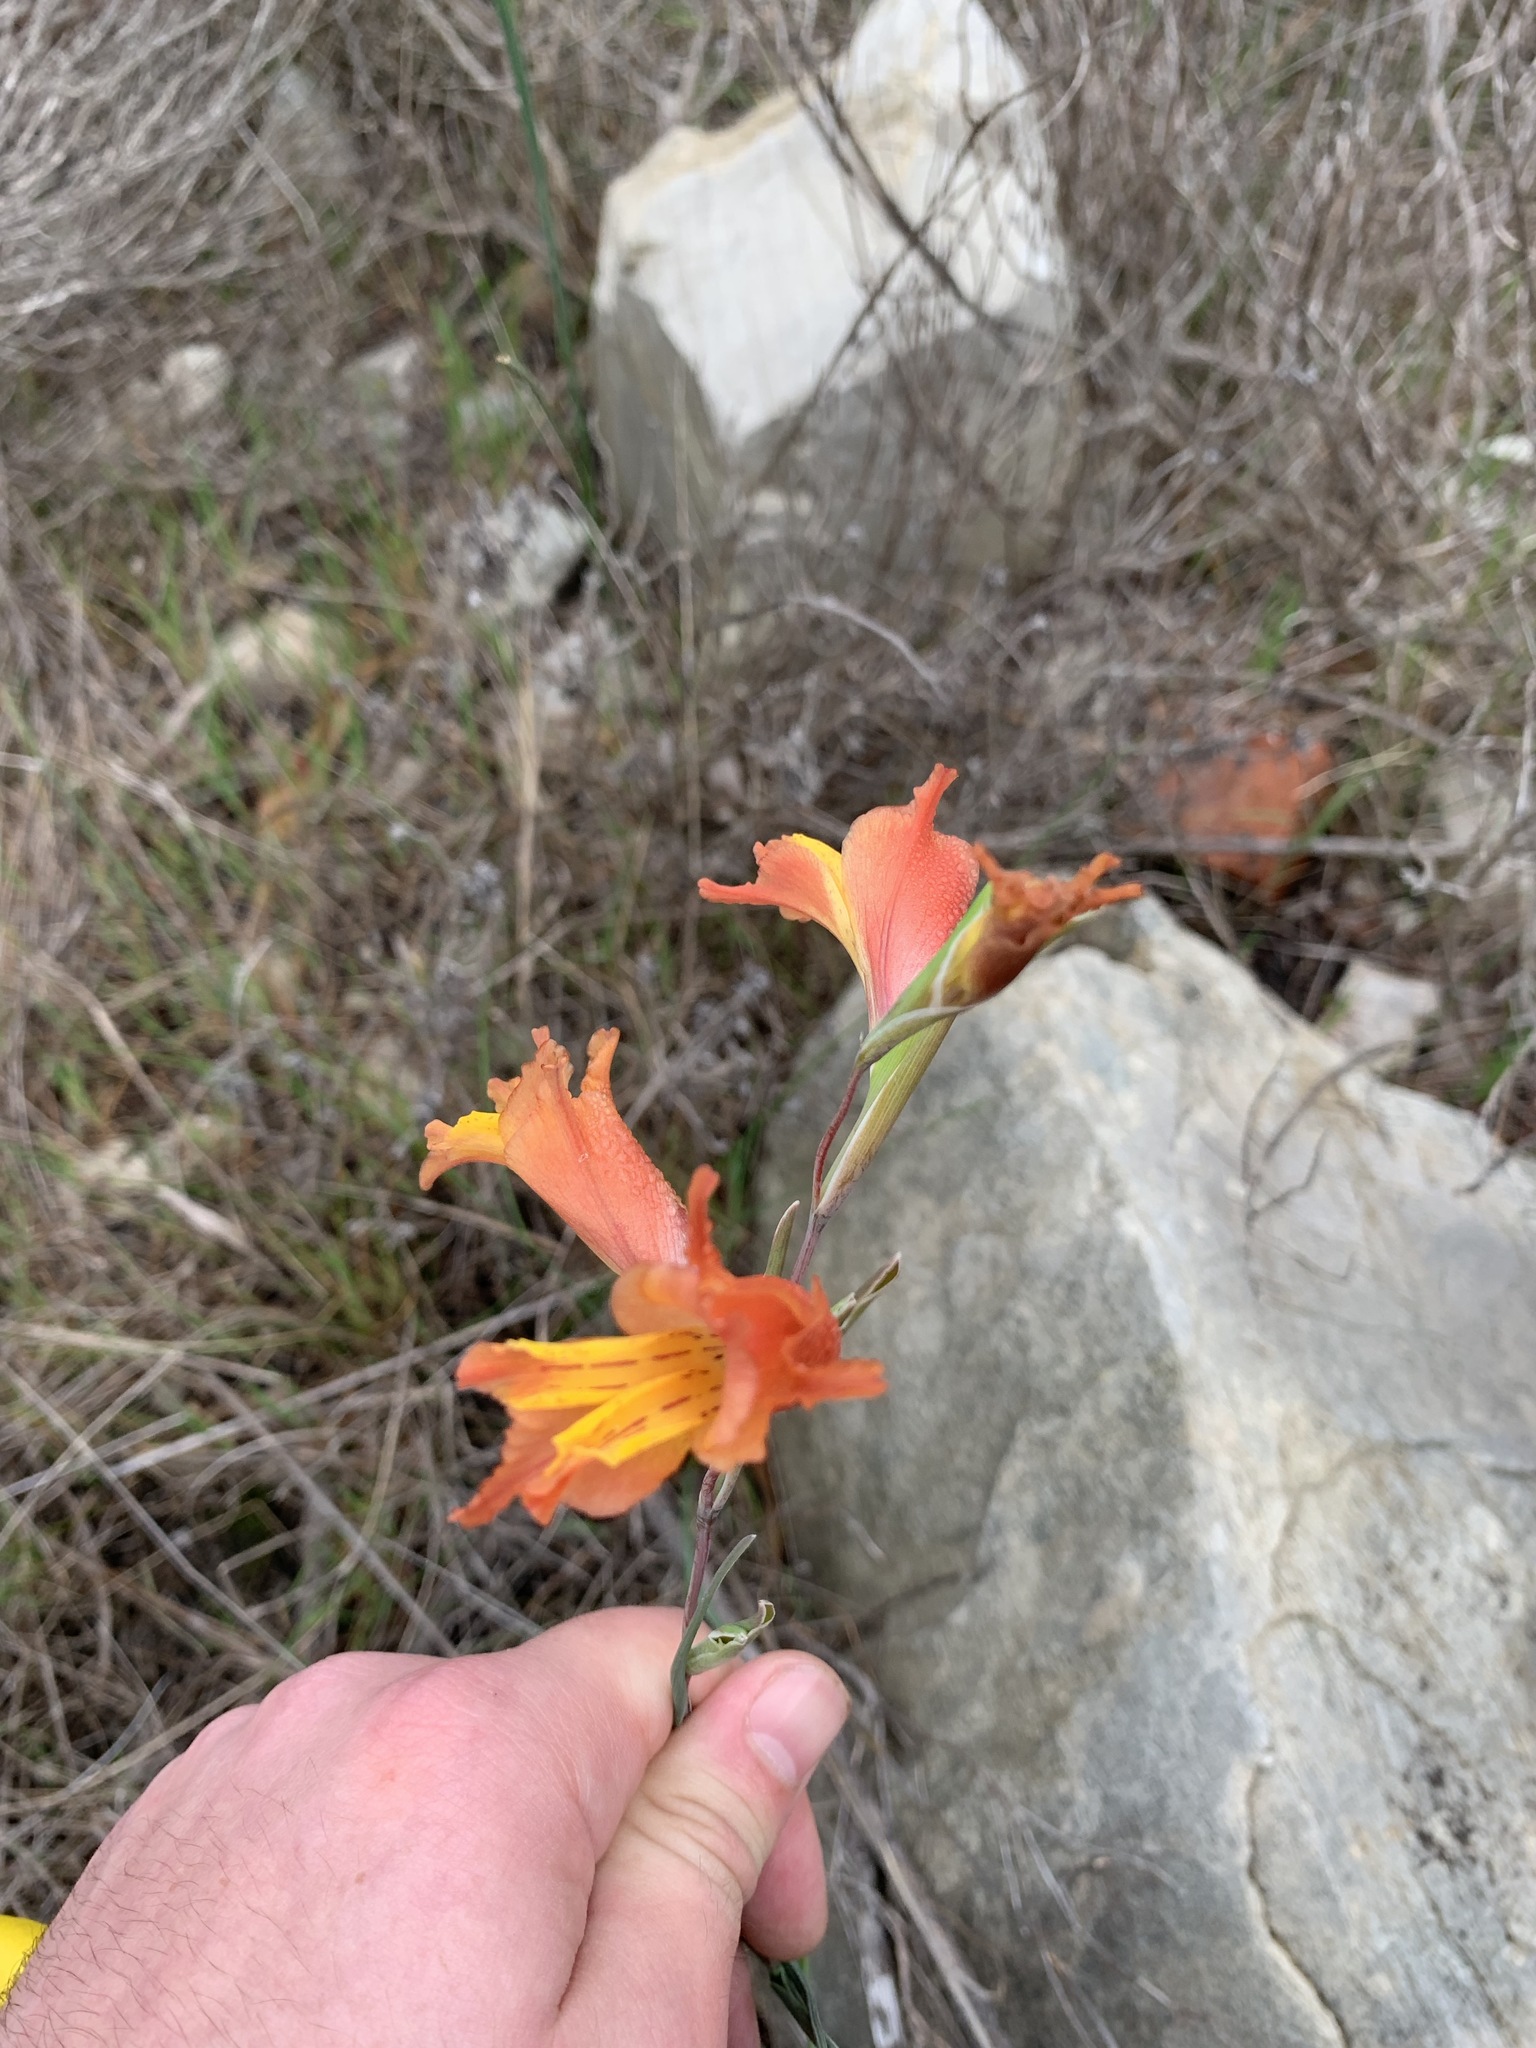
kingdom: Plantae
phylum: Tracheophyta
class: Liliopsida
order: Asparagales
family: Iridaceae
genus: Gladiolus
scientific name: Gladiolus gracilis
